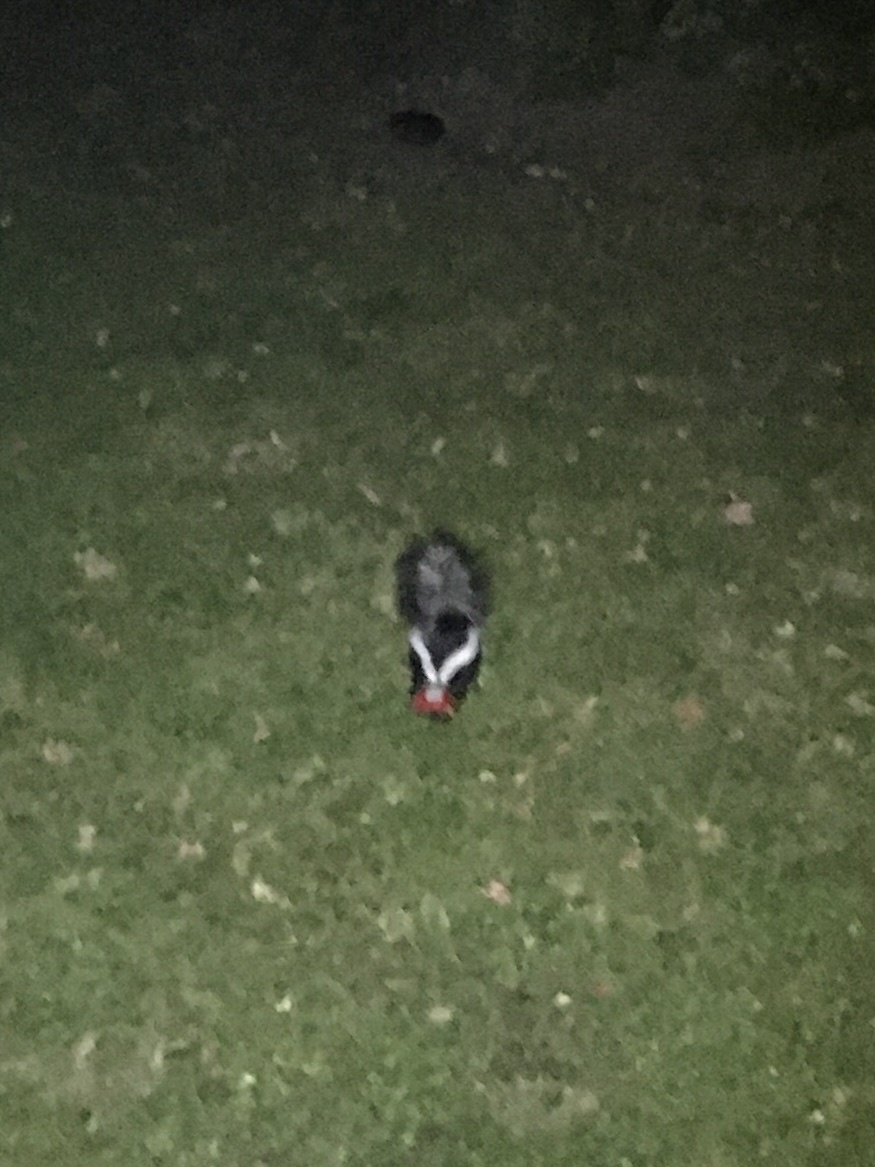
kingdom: Animalia
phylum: Chordata
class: Mammalia
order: Carnivora
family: Mephitidae
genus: Mephitis
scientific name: Mephitis mephitis
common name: Striped skunk
